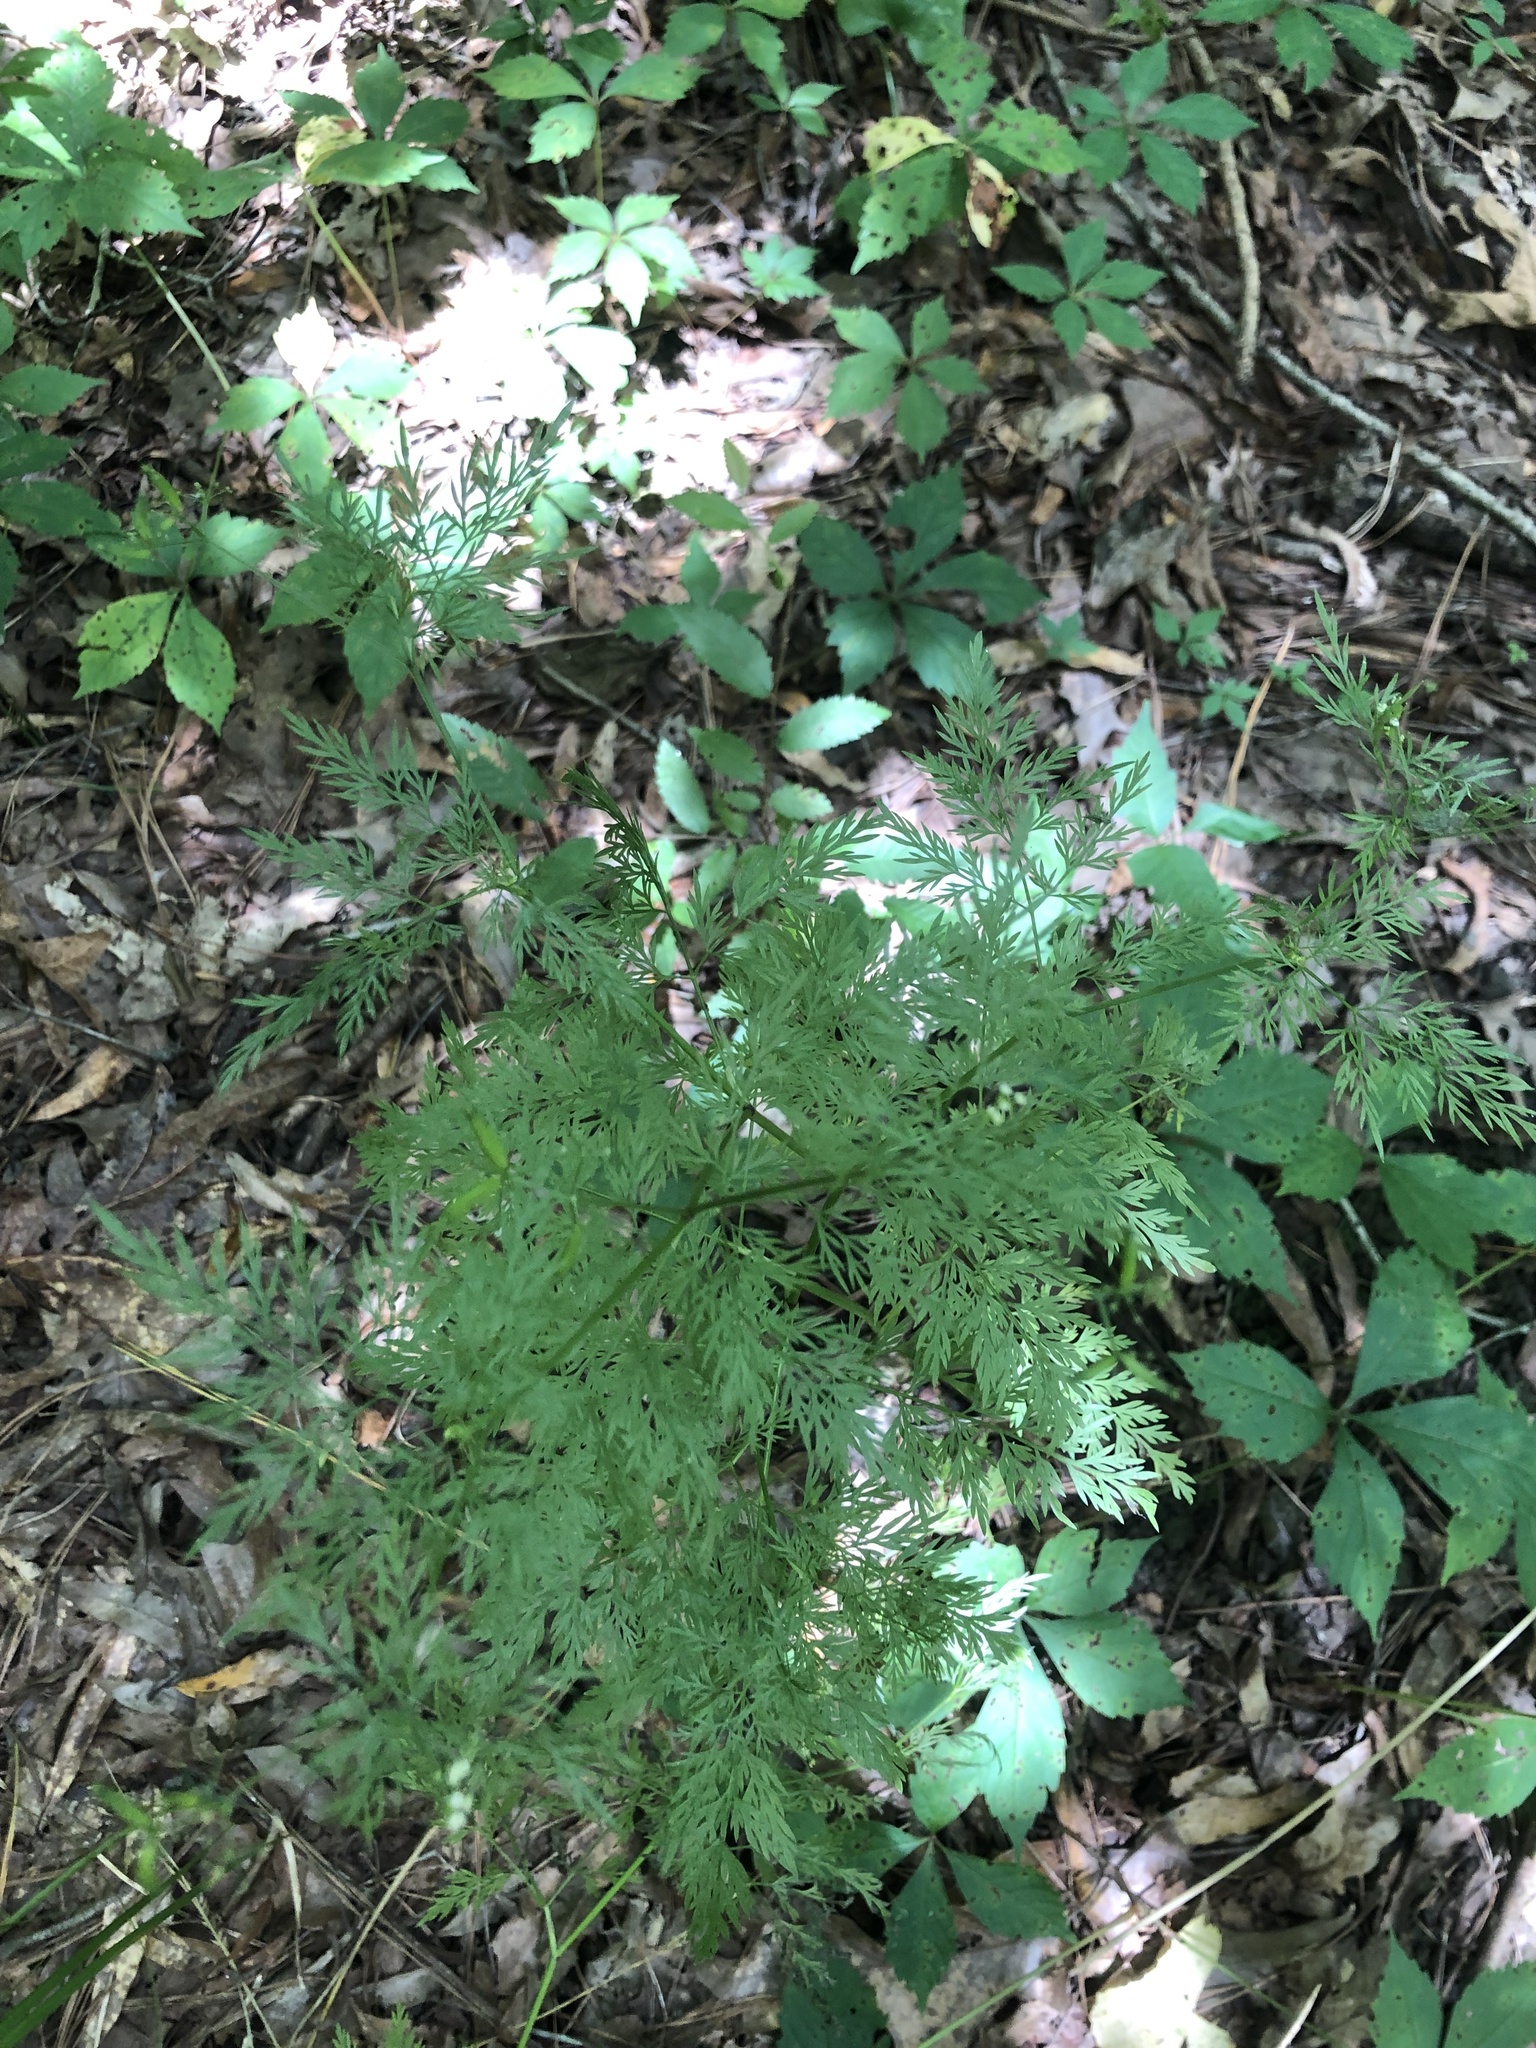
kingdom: Plantae
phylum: Tracheophyta
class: Magnoliopsida
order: Apiales
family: Apiaceae
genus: Trepocarpus
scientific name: Trepocarpus aethusae
